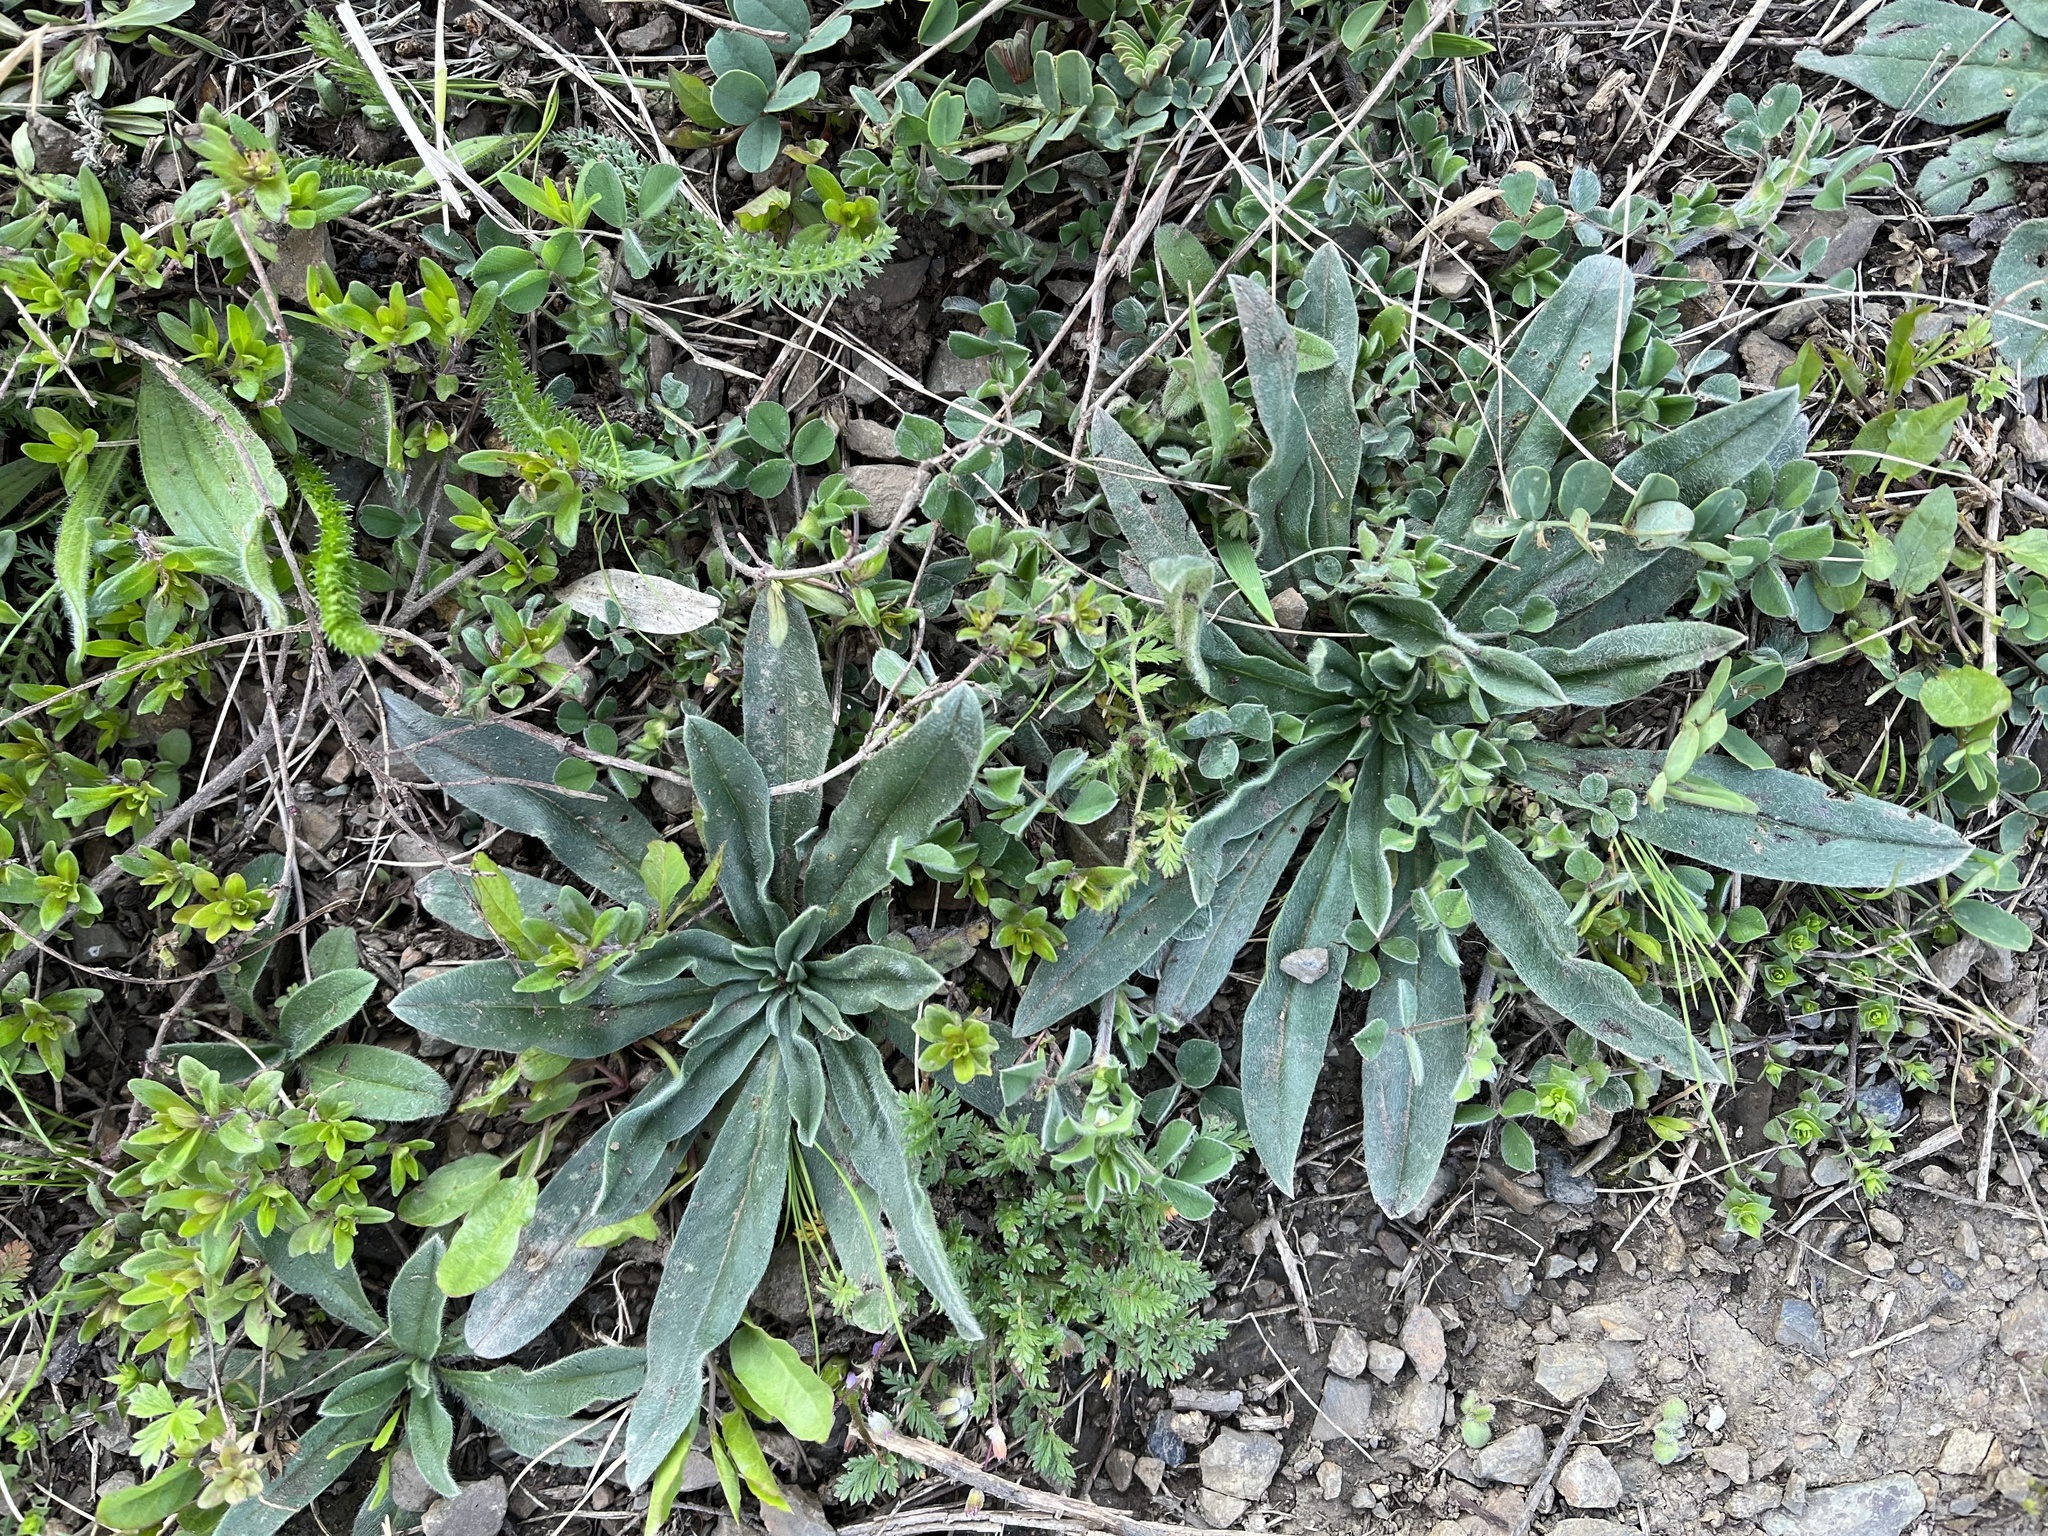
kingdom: Plantae
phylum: Tracheophyta
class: Magnoliopsida
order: Boraginales
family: Boraginaceae
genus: Echium
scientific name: Echium vulgare
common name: Common viper's bugloss
